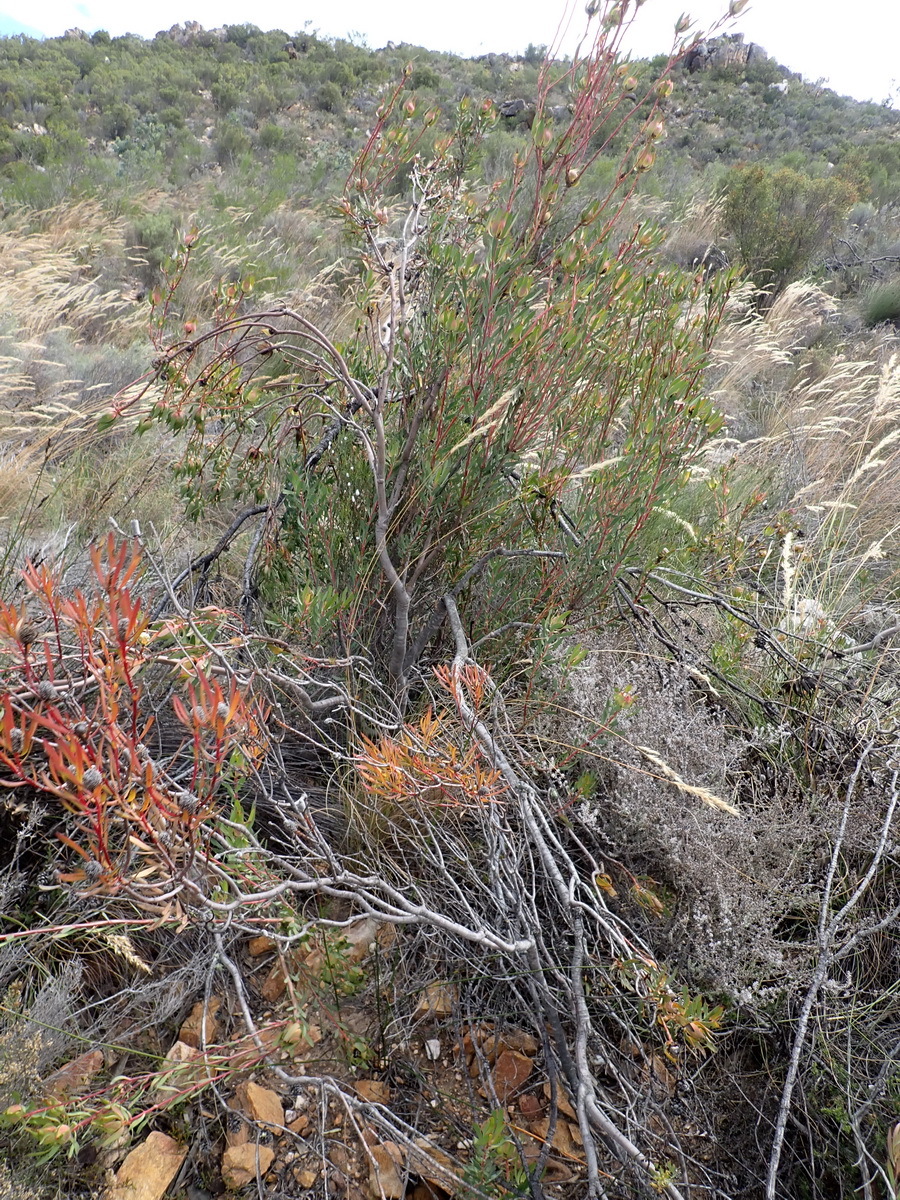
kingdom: Plantae
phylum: Tracheophyta
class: Magnoliopsida
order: Proteales
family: Proteaceae
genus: Leucadendron
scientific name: Leucadendron salignum
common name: Common sunshine conebush
